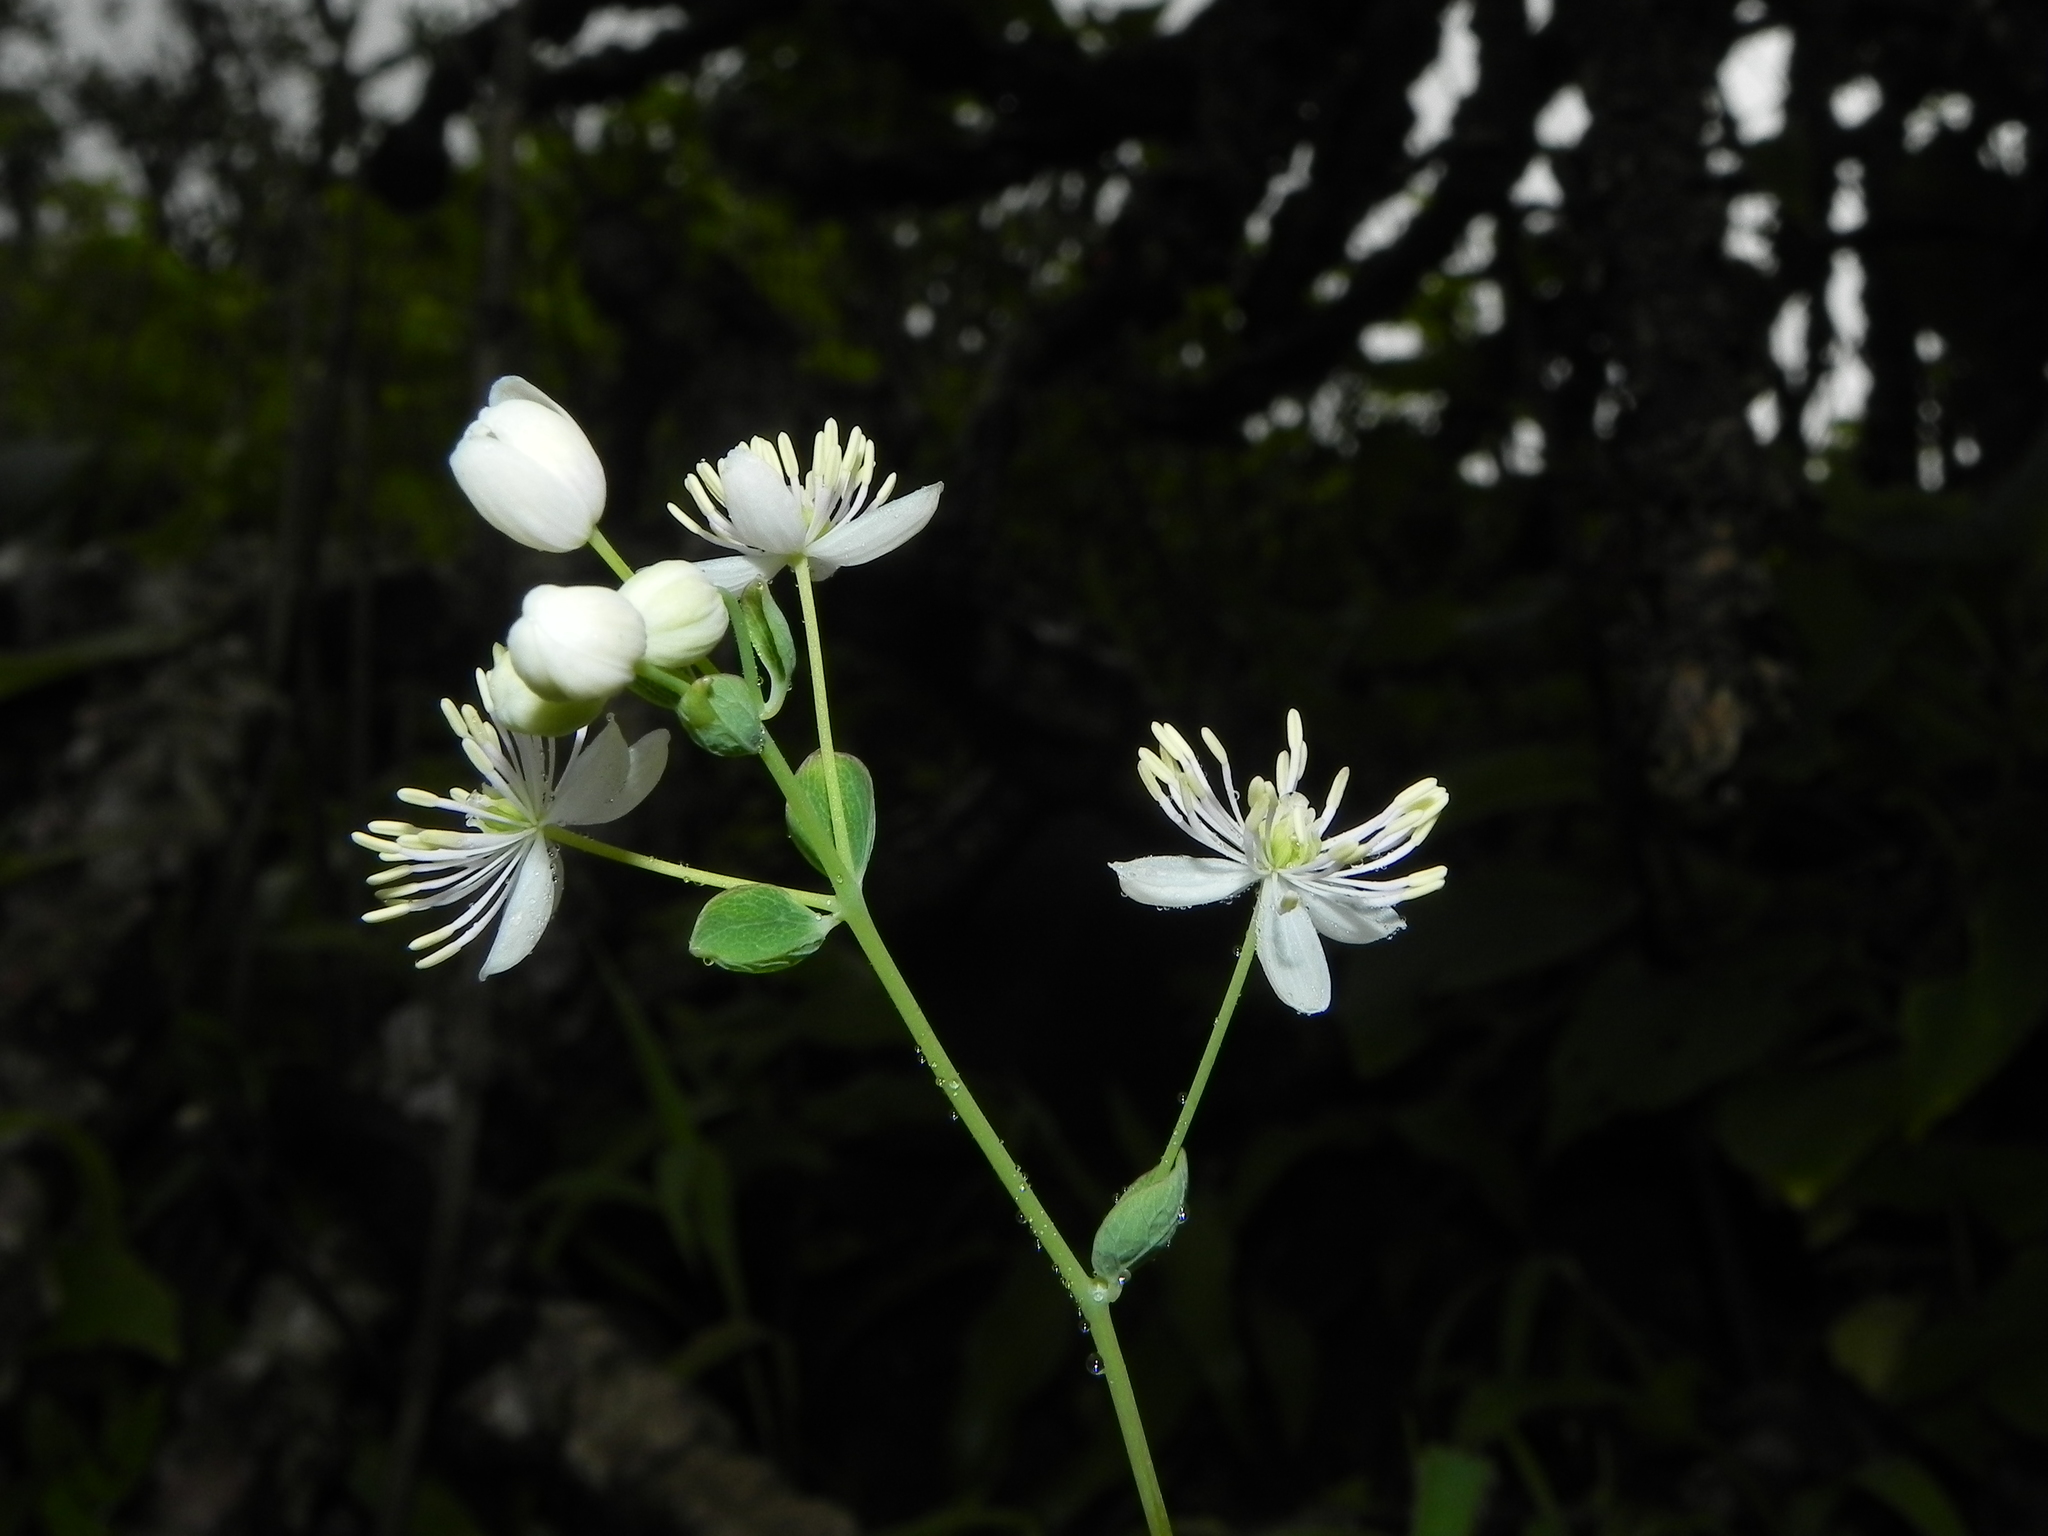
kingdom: Plantae
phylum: Tracheophyta
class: Magnoliopsida
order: Ranunculales
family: Ranunculaceae
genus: Thalictrum
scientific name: Thalictrum dalzellii
